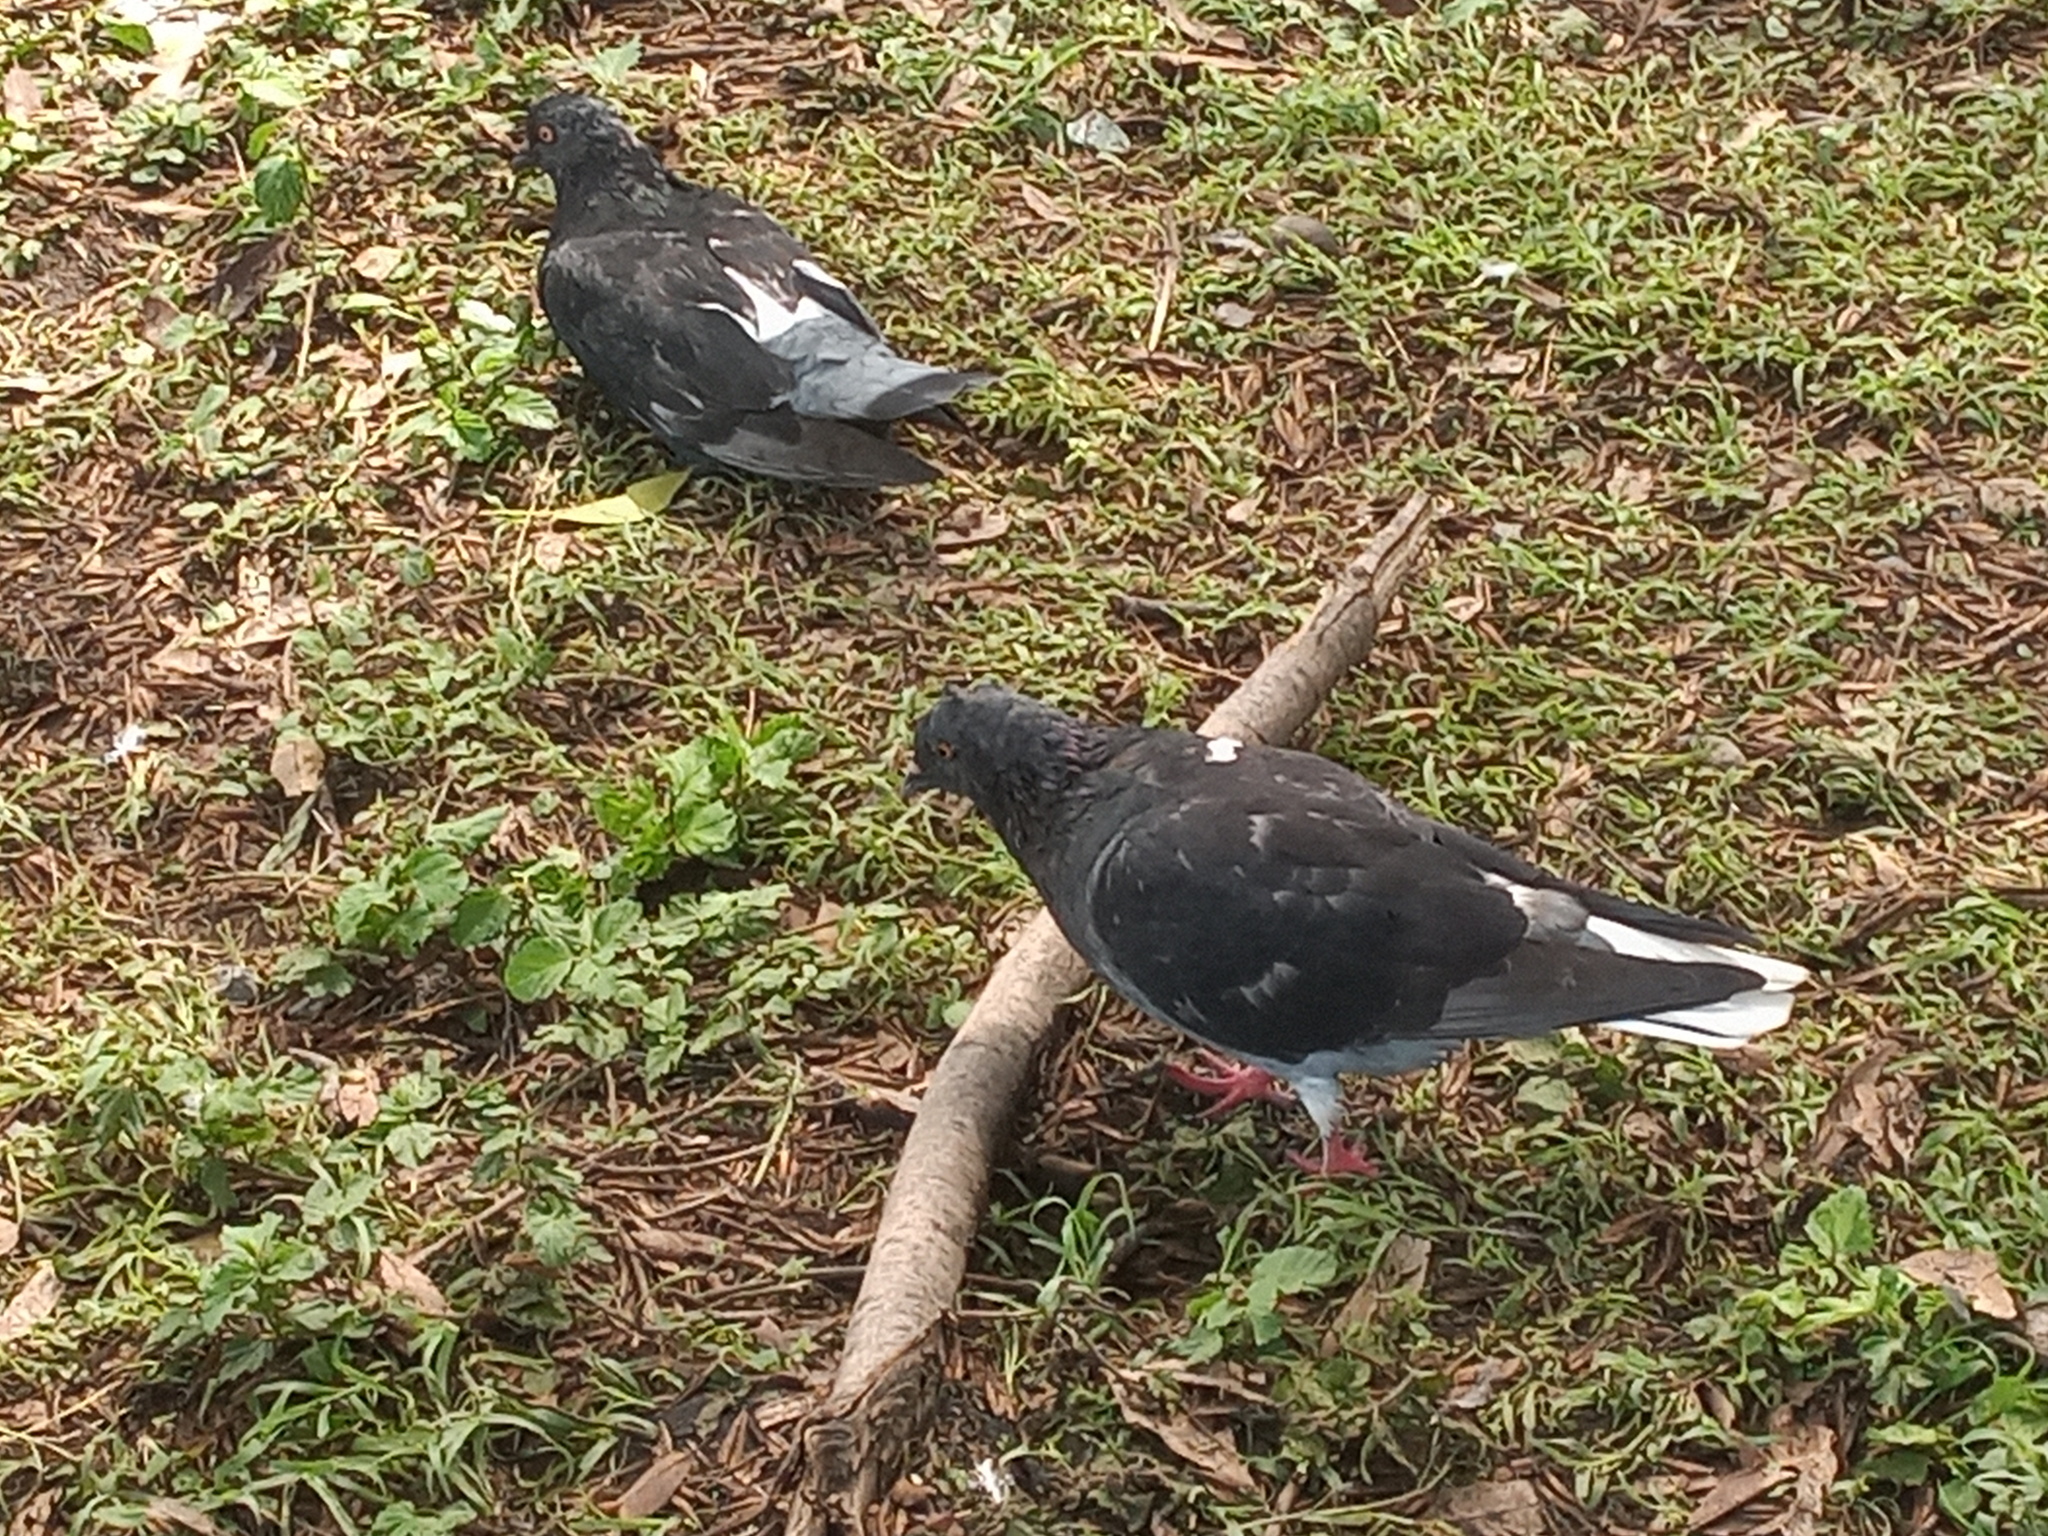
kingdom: Animalia
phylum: Chordata
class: Aves
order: Columbiformes
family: Columbidae
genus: Columba
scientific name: Columba livia
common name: Rock pigeon
